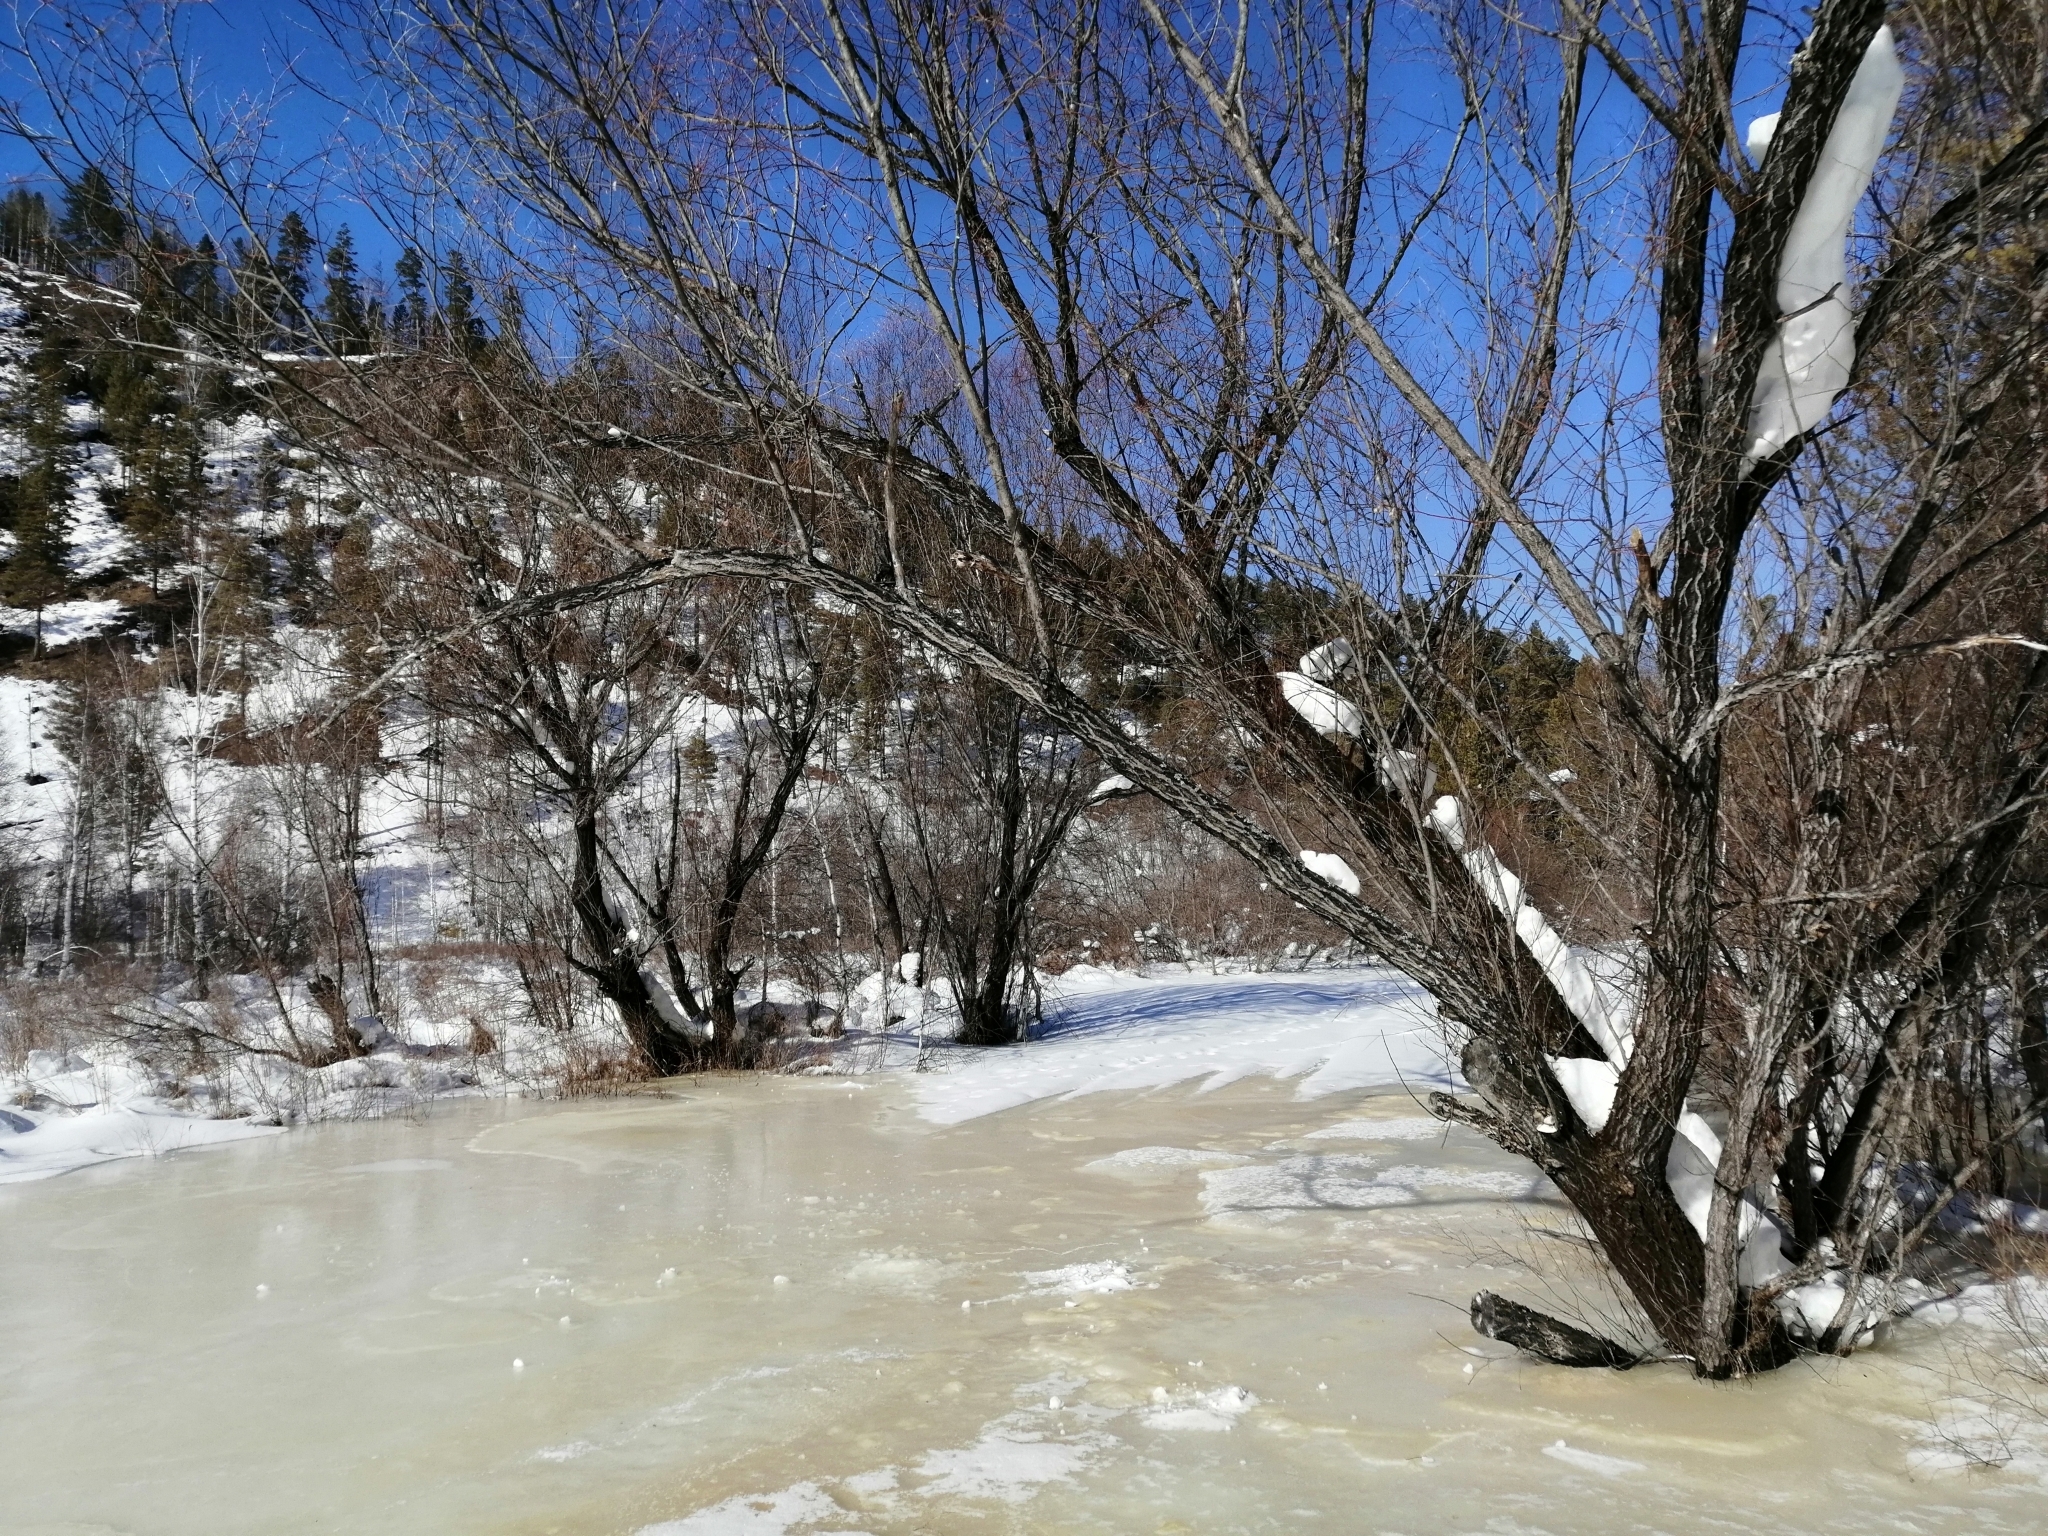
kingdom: Plantae
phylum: Tracheophyta
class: Pinopsida
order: Pinales
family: Pinaceae
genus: Pinus
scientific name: Pinus sylvestris
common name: Scots pine
